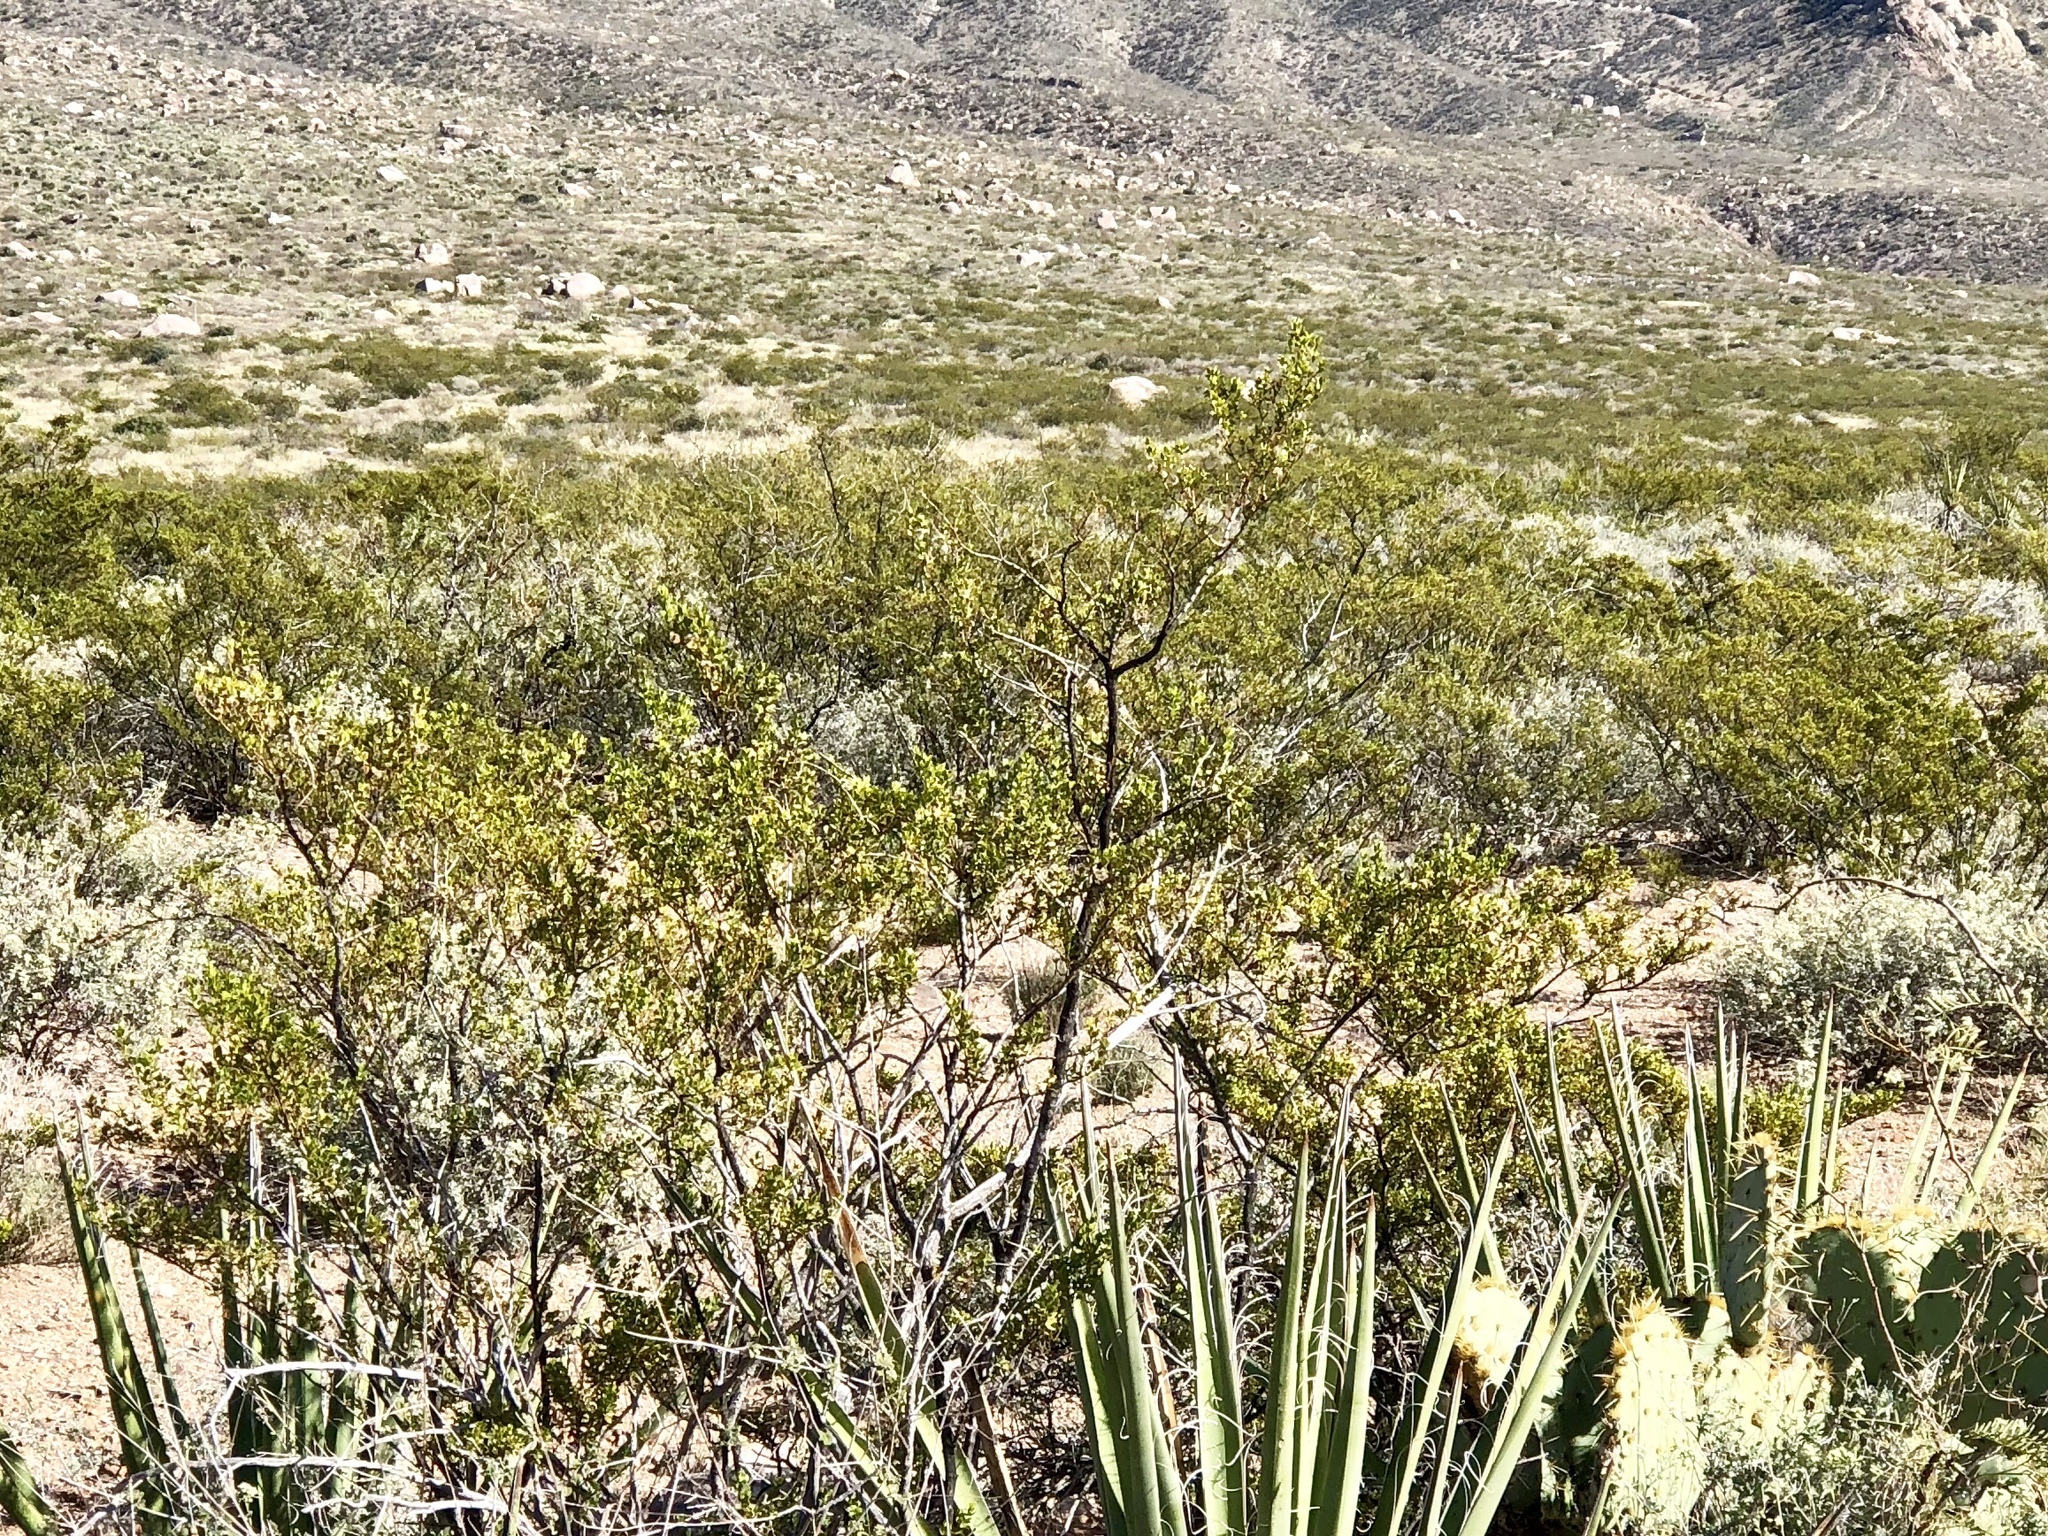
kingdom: Plantae
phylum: Tracheophyta
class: Magnoliopsida
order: Zygophyllales
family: Zygophyllaceae
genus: Larrea
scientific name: Larrea tridentata
